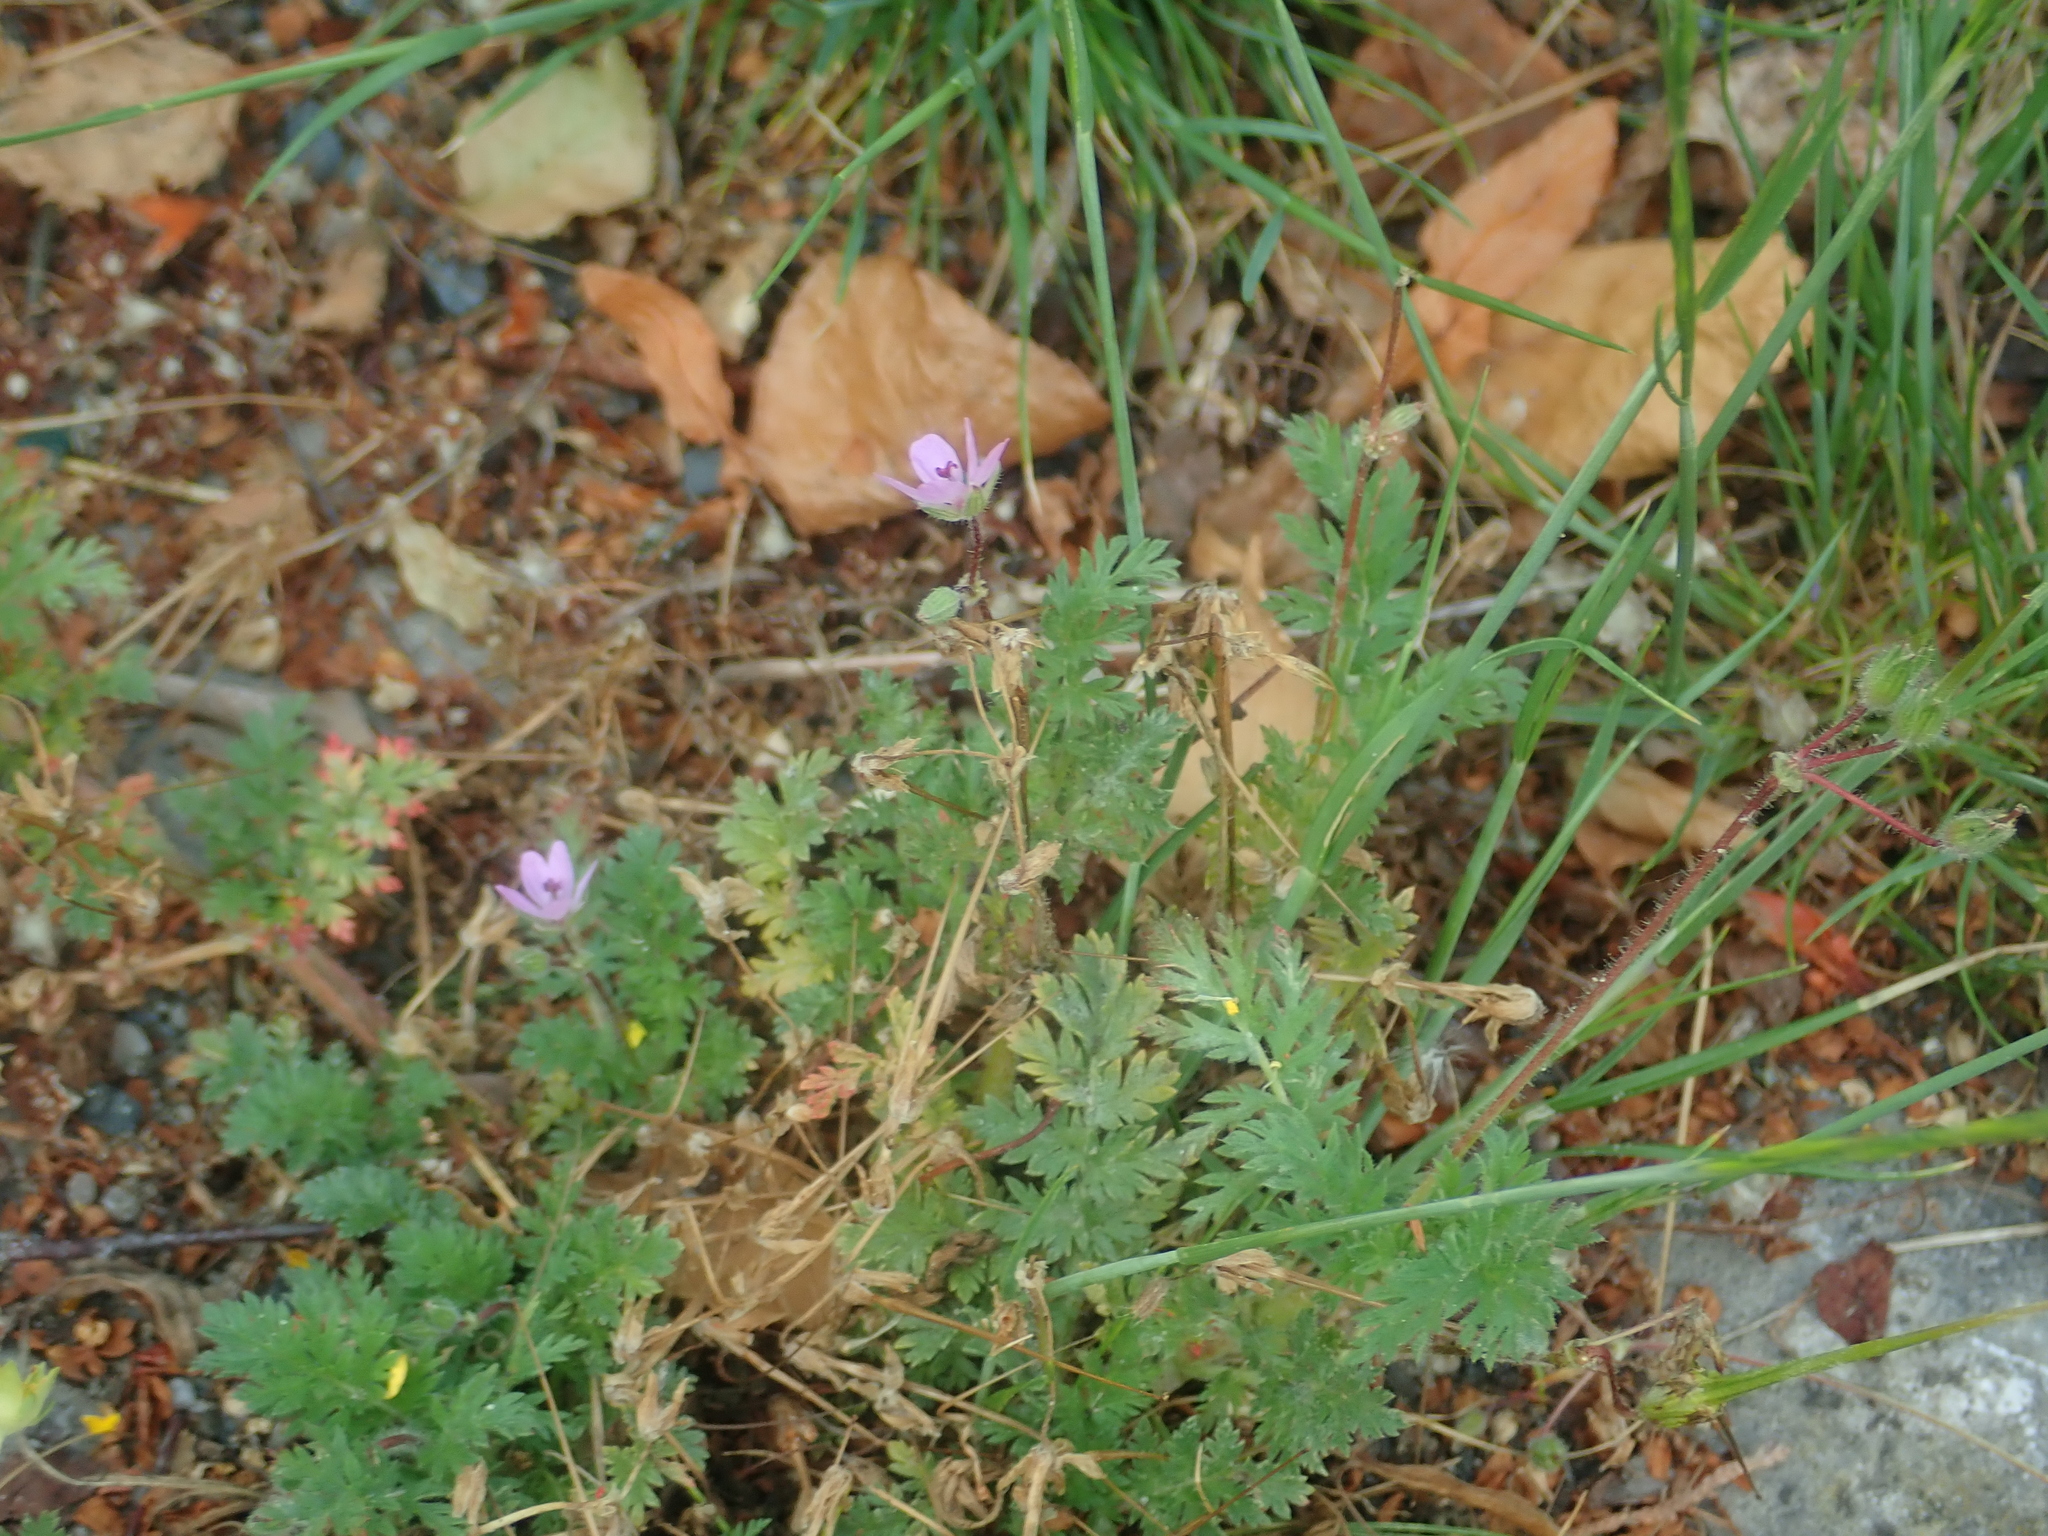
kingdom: Plantae
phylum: Tracheophyta
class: Magnoliopsida
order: Geraniales
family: Geraniaceae
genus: Erodium
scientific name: Erodium cicutarium
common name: Common stork's-bill
